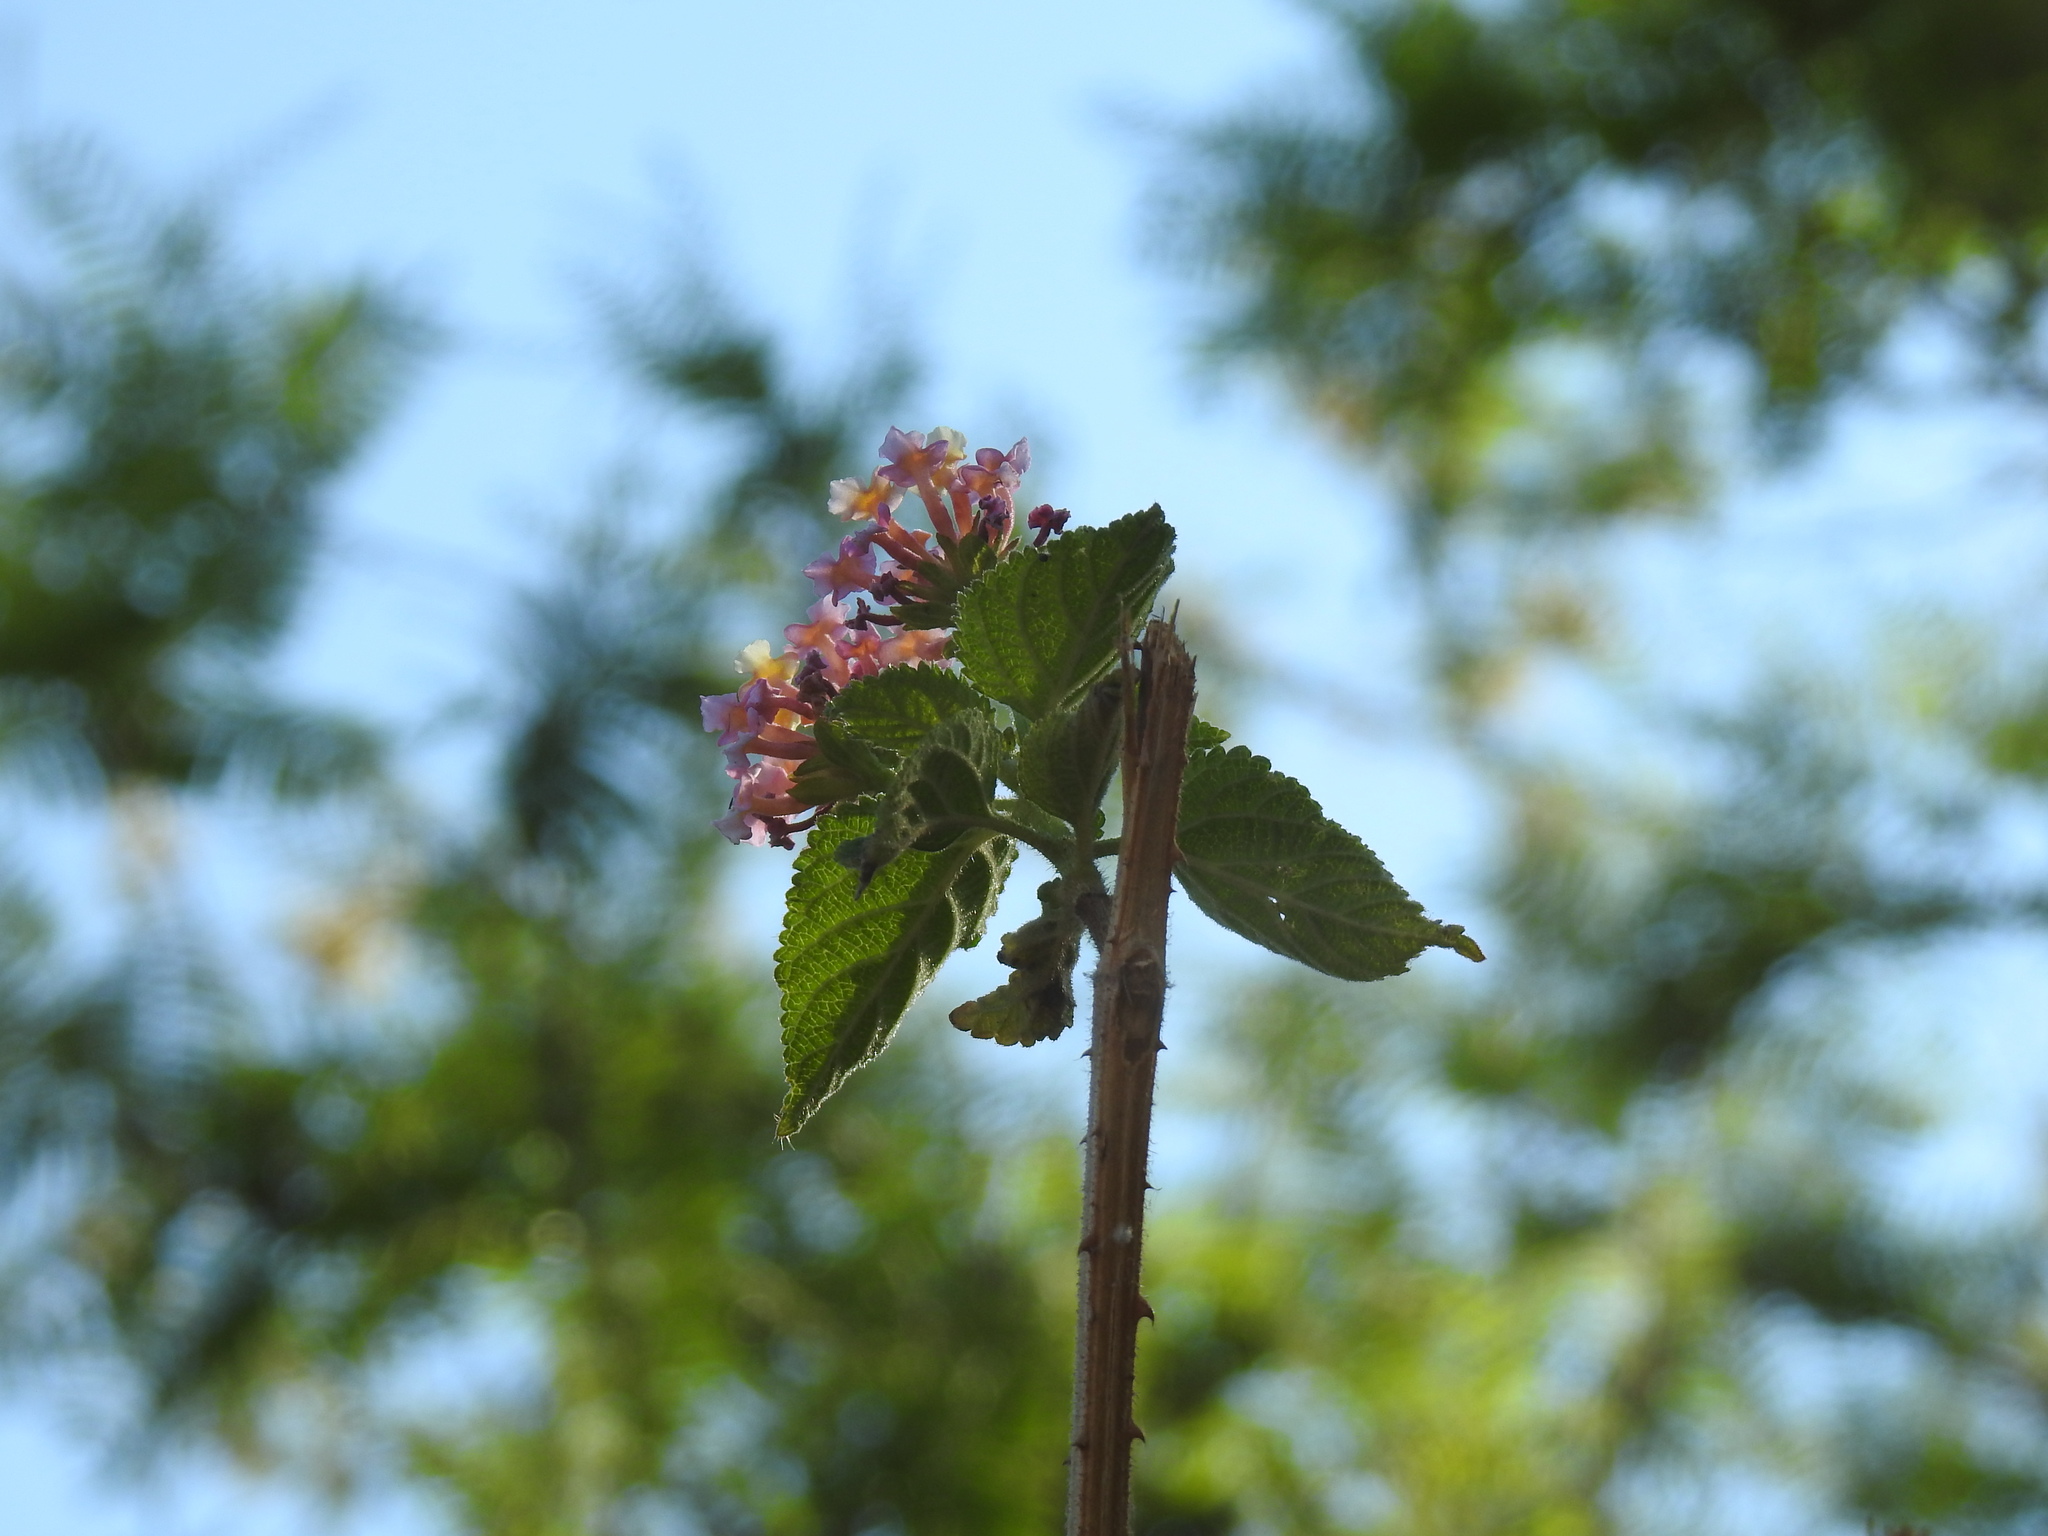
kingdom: Plantae
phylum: Tracheophyta
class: Magnoliopsida
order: Lamiales
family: Verbenaceae
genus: Lantana
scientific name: Lantana camara
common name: Lantana
